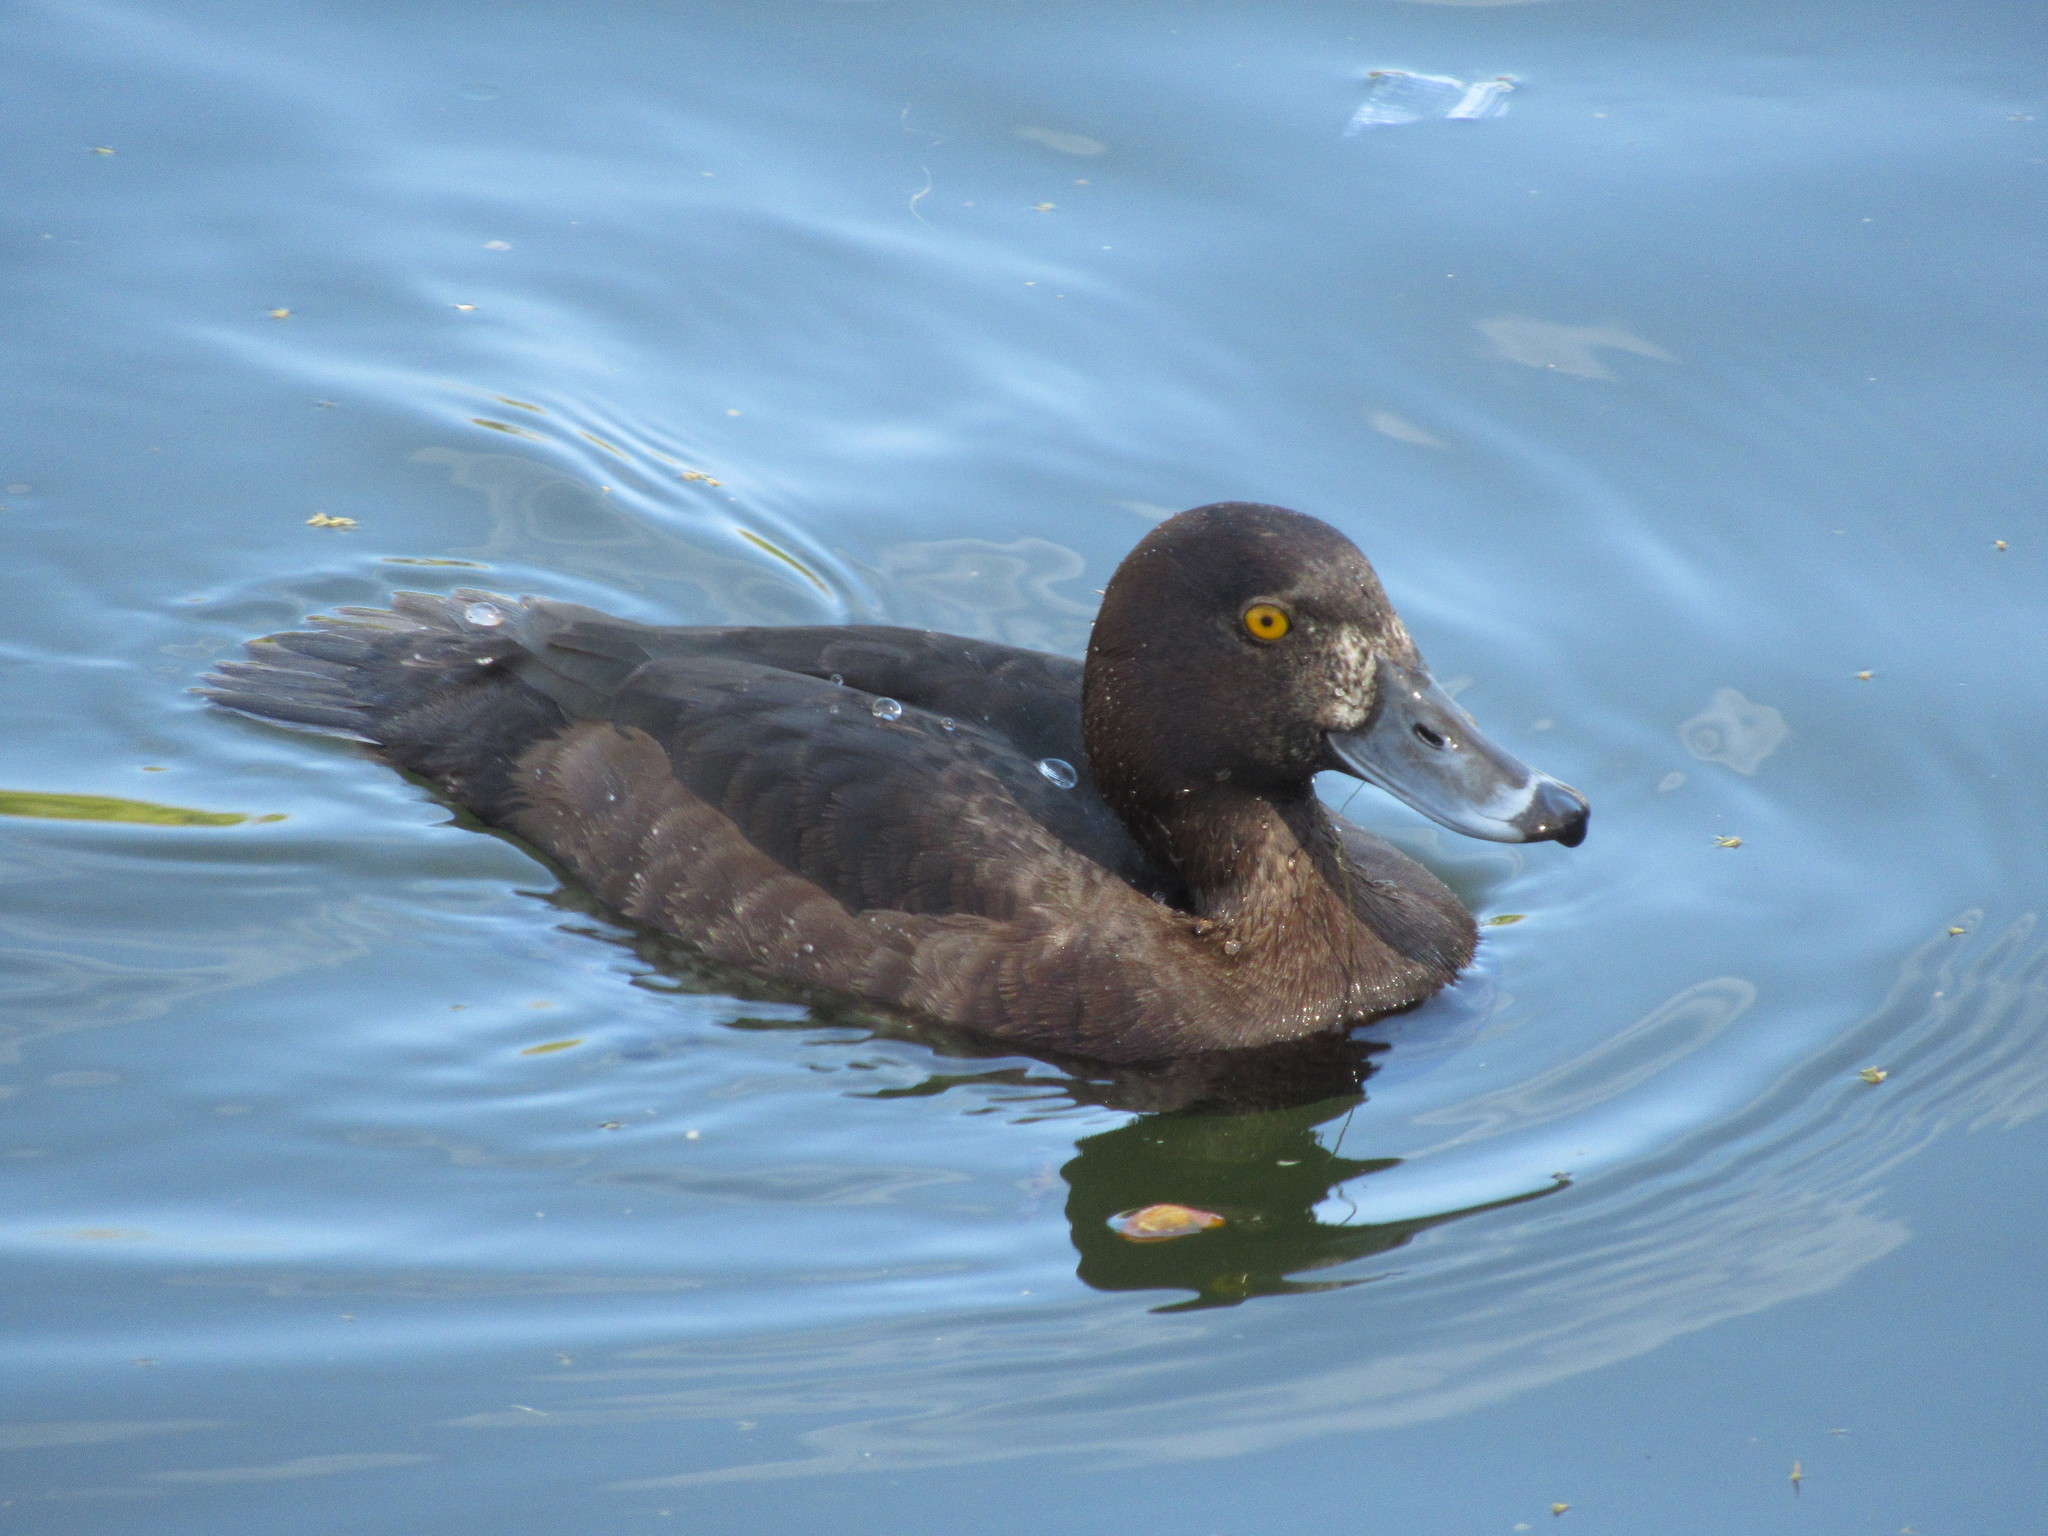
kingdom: Animalia
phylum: Chordata
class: Aves
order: Anseriformes
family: Anatidae
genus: Aythya
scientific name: Aythya fuligula
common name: Tufted duck
